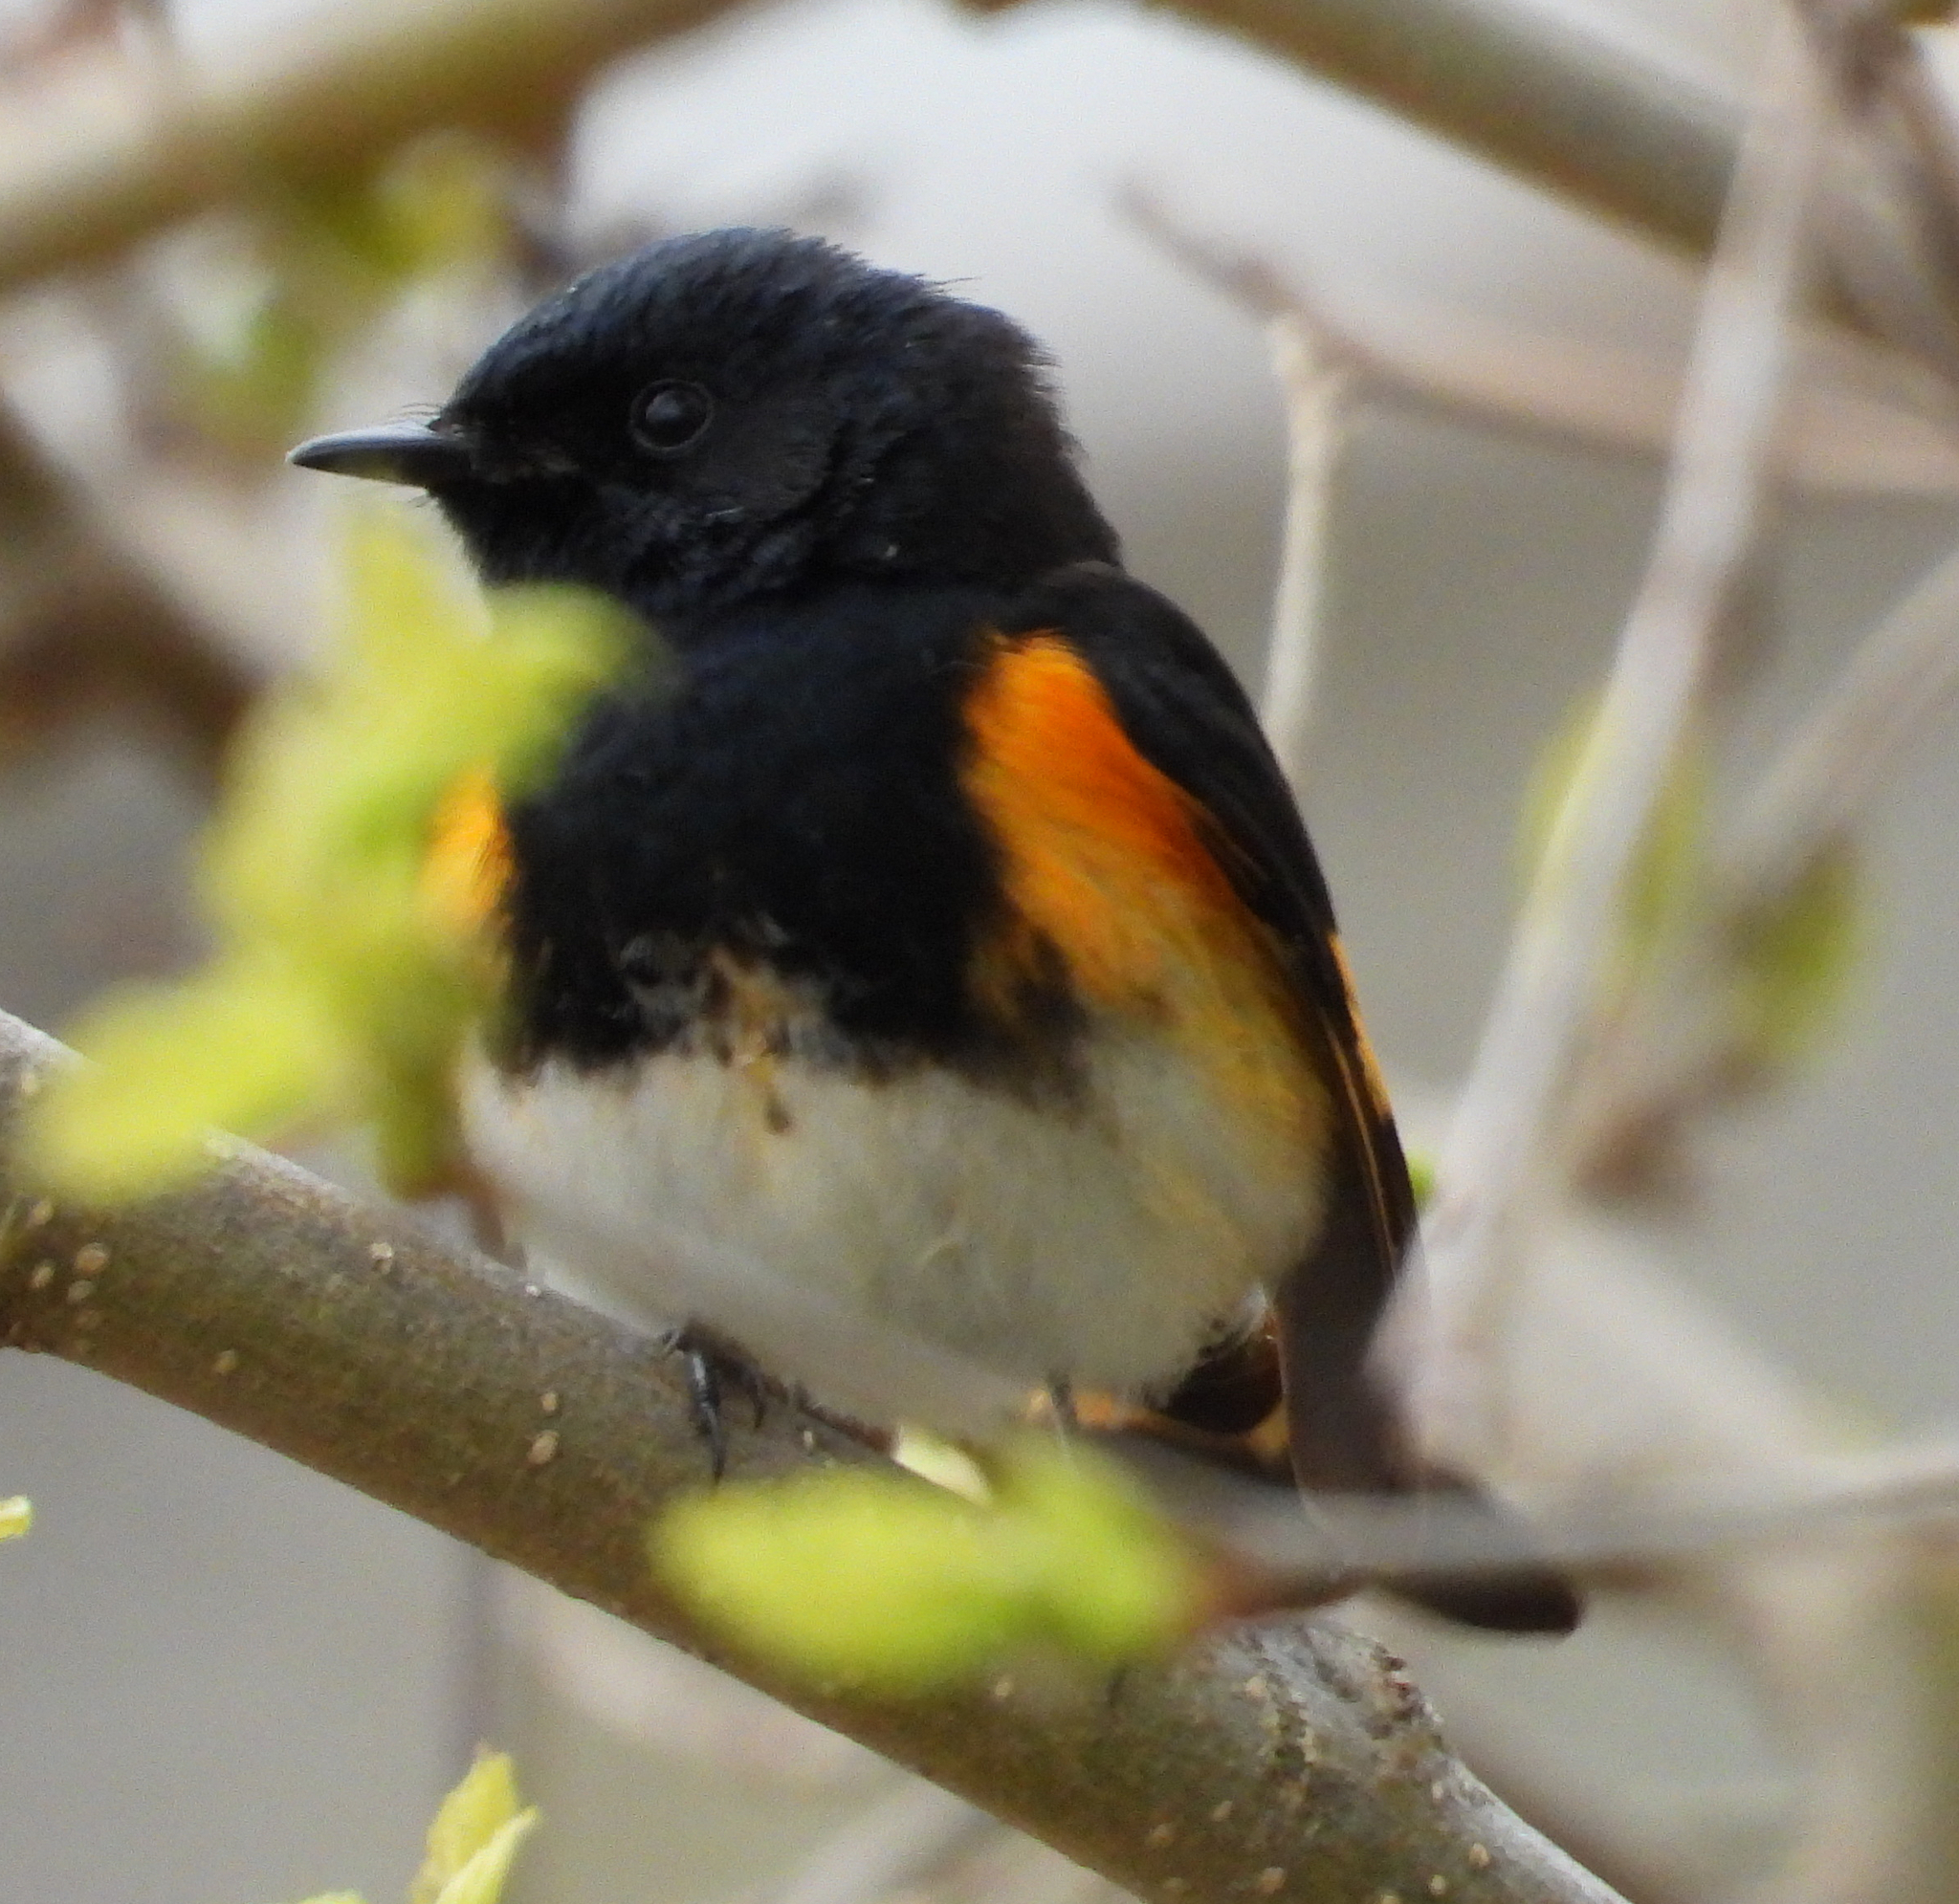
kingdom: Animalia
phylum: Chordata
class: Aves
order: Passeriformes
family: Parulidae
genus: Setophaga
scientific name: Setophaga ruticilla
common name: American redstart
